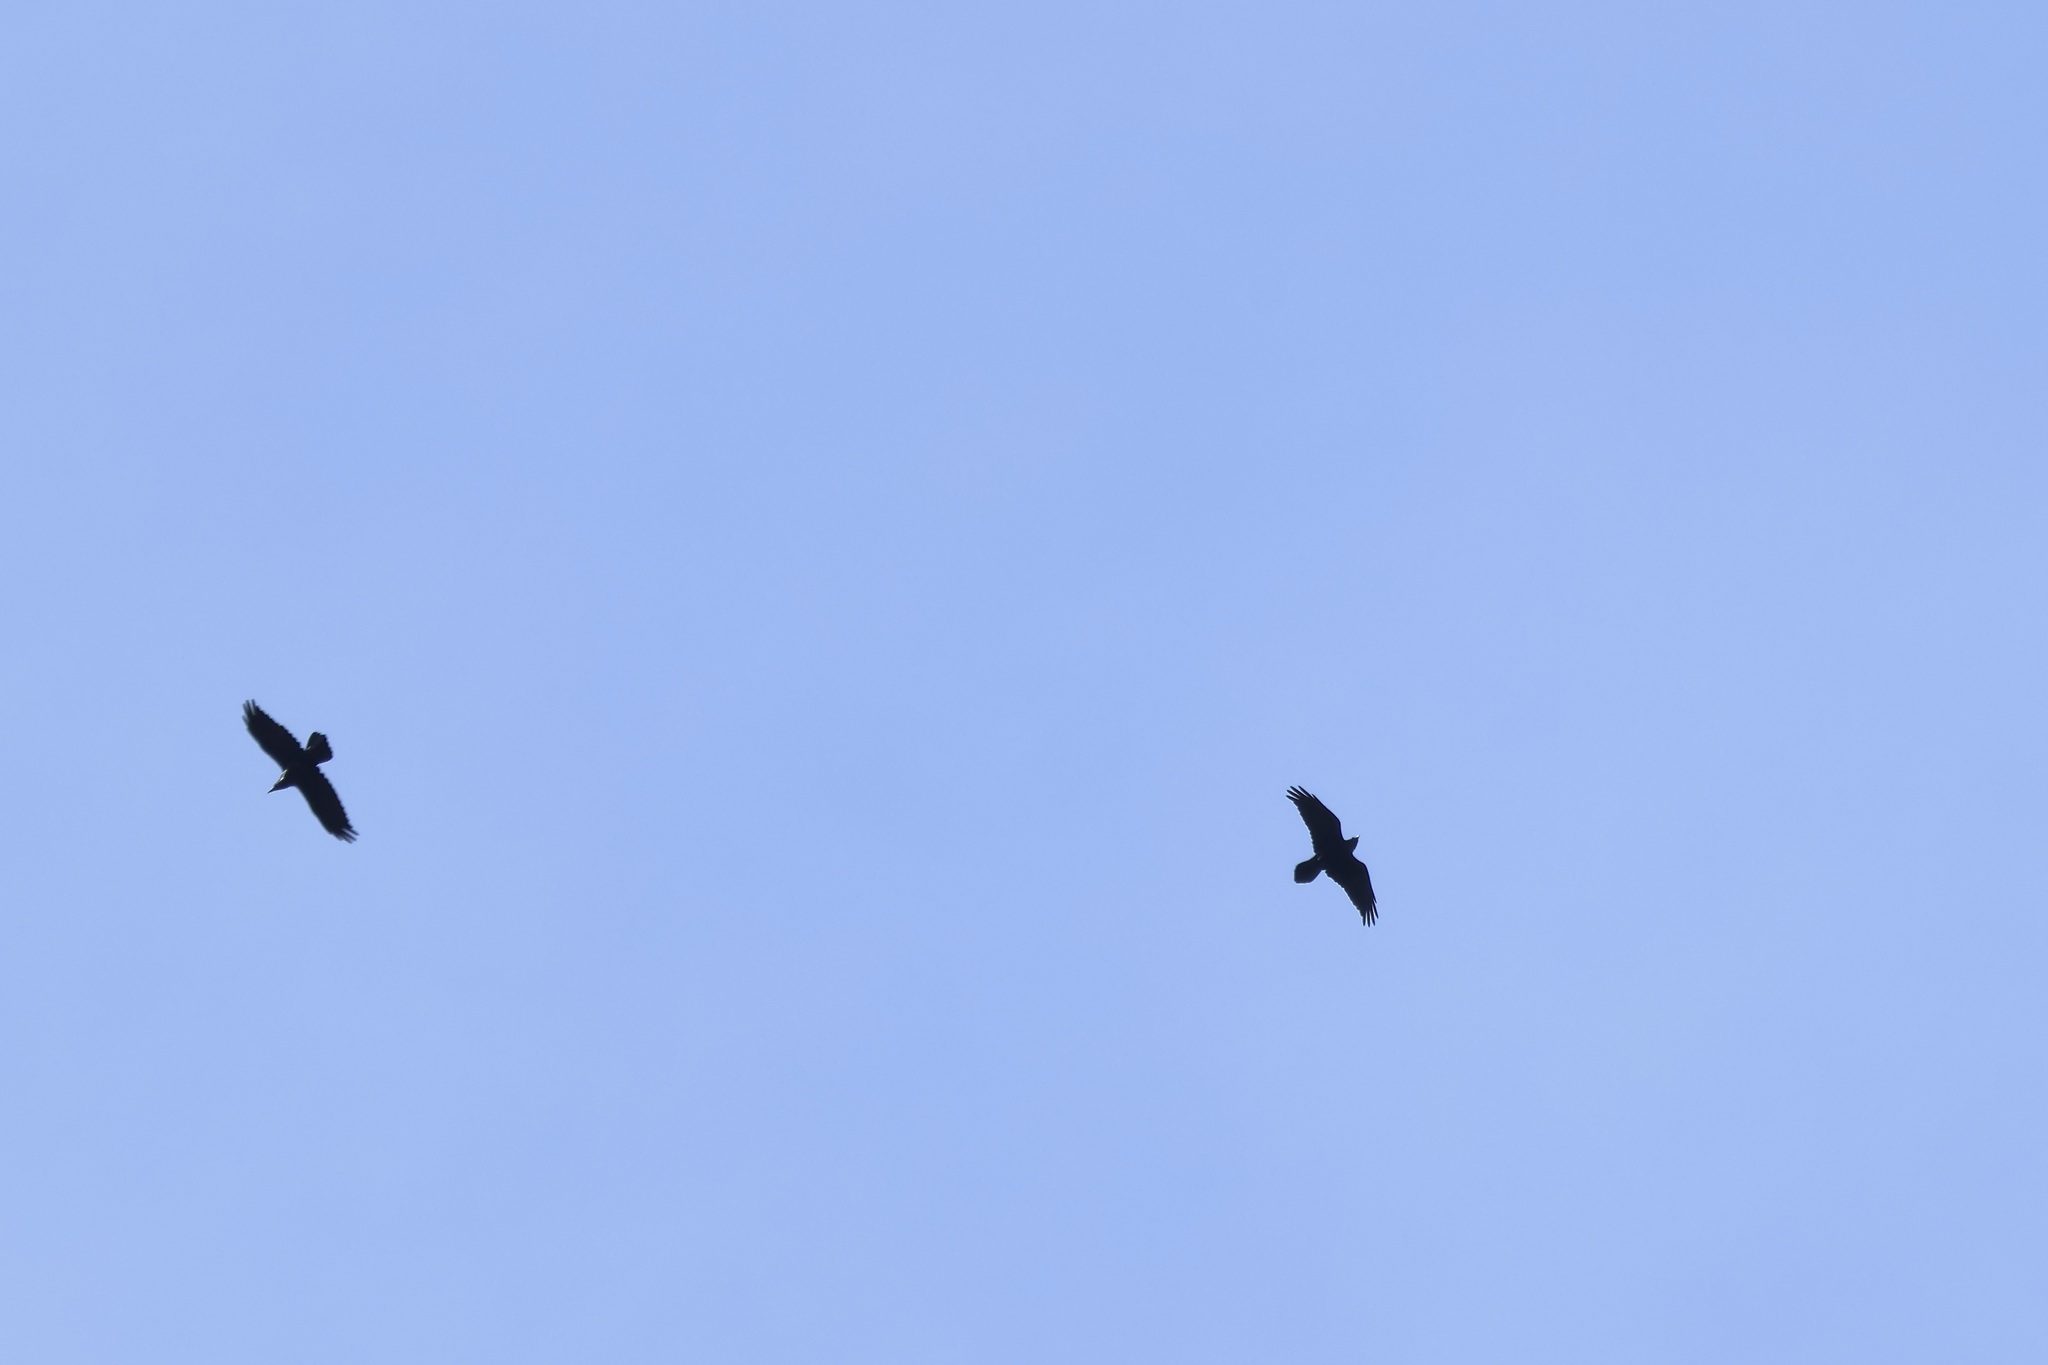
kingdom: Animalia
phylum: Chordata
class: Aves
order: Passeriformes
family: Corvidae
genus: Corvus
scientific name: Corvus corax
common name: Common raven
